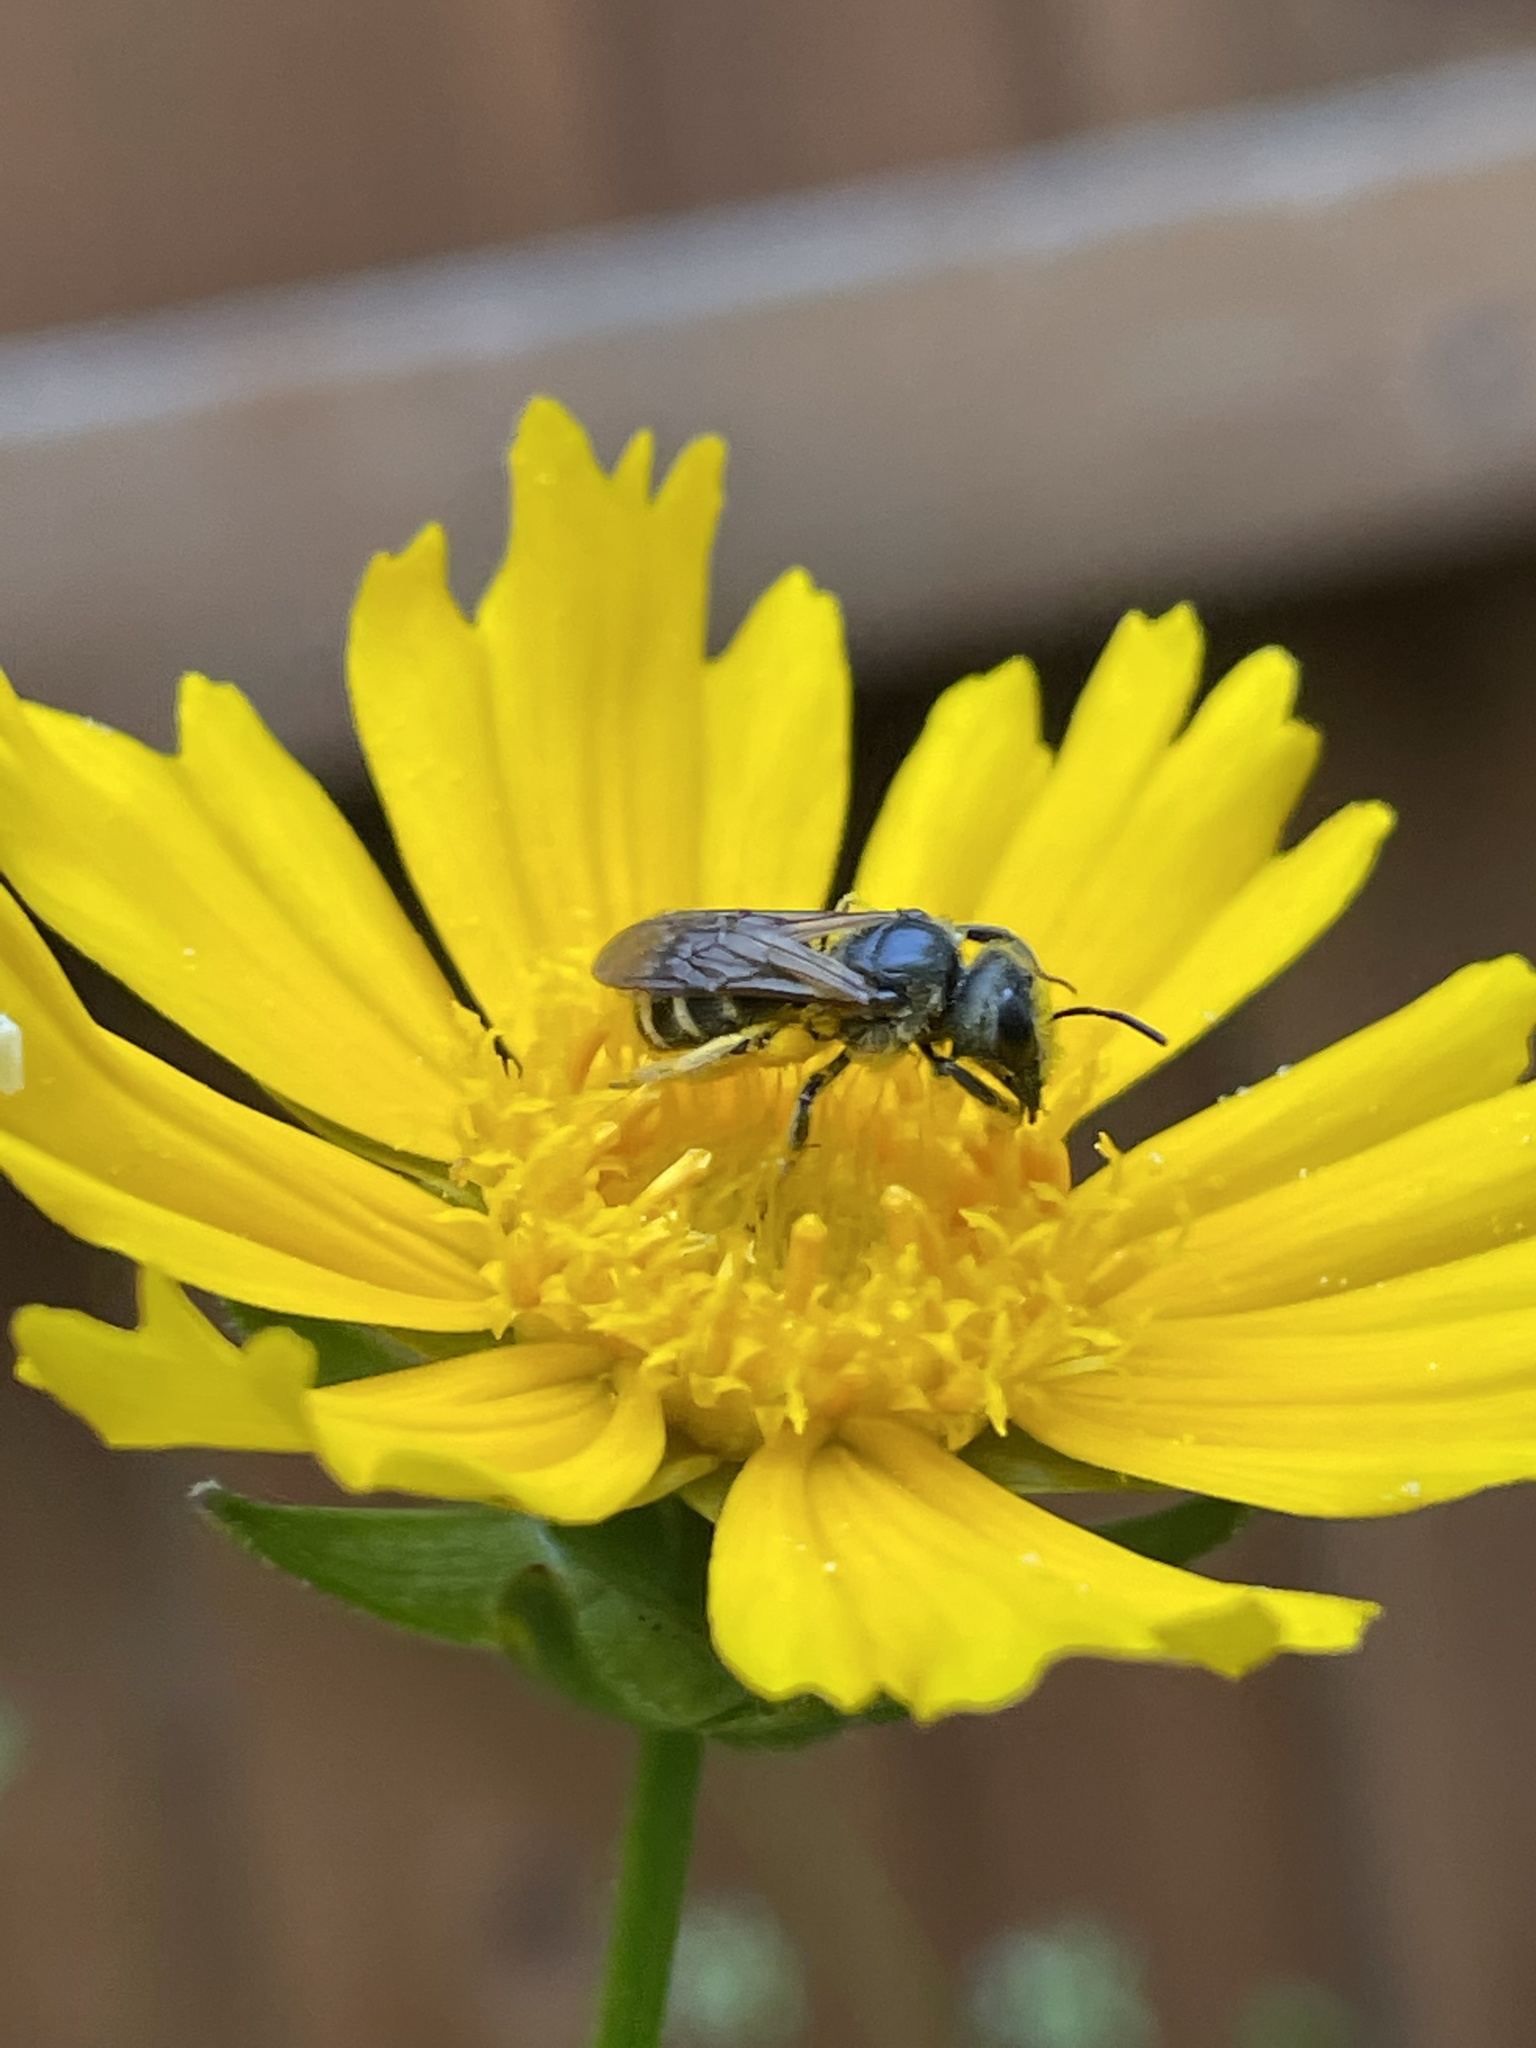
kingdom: Animalia
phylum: Arthropoda
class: Insecta
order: Hymenoptera
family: Halictidae
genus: Halictus
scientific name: Halictus ligatus
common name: Ligated furrow bee
